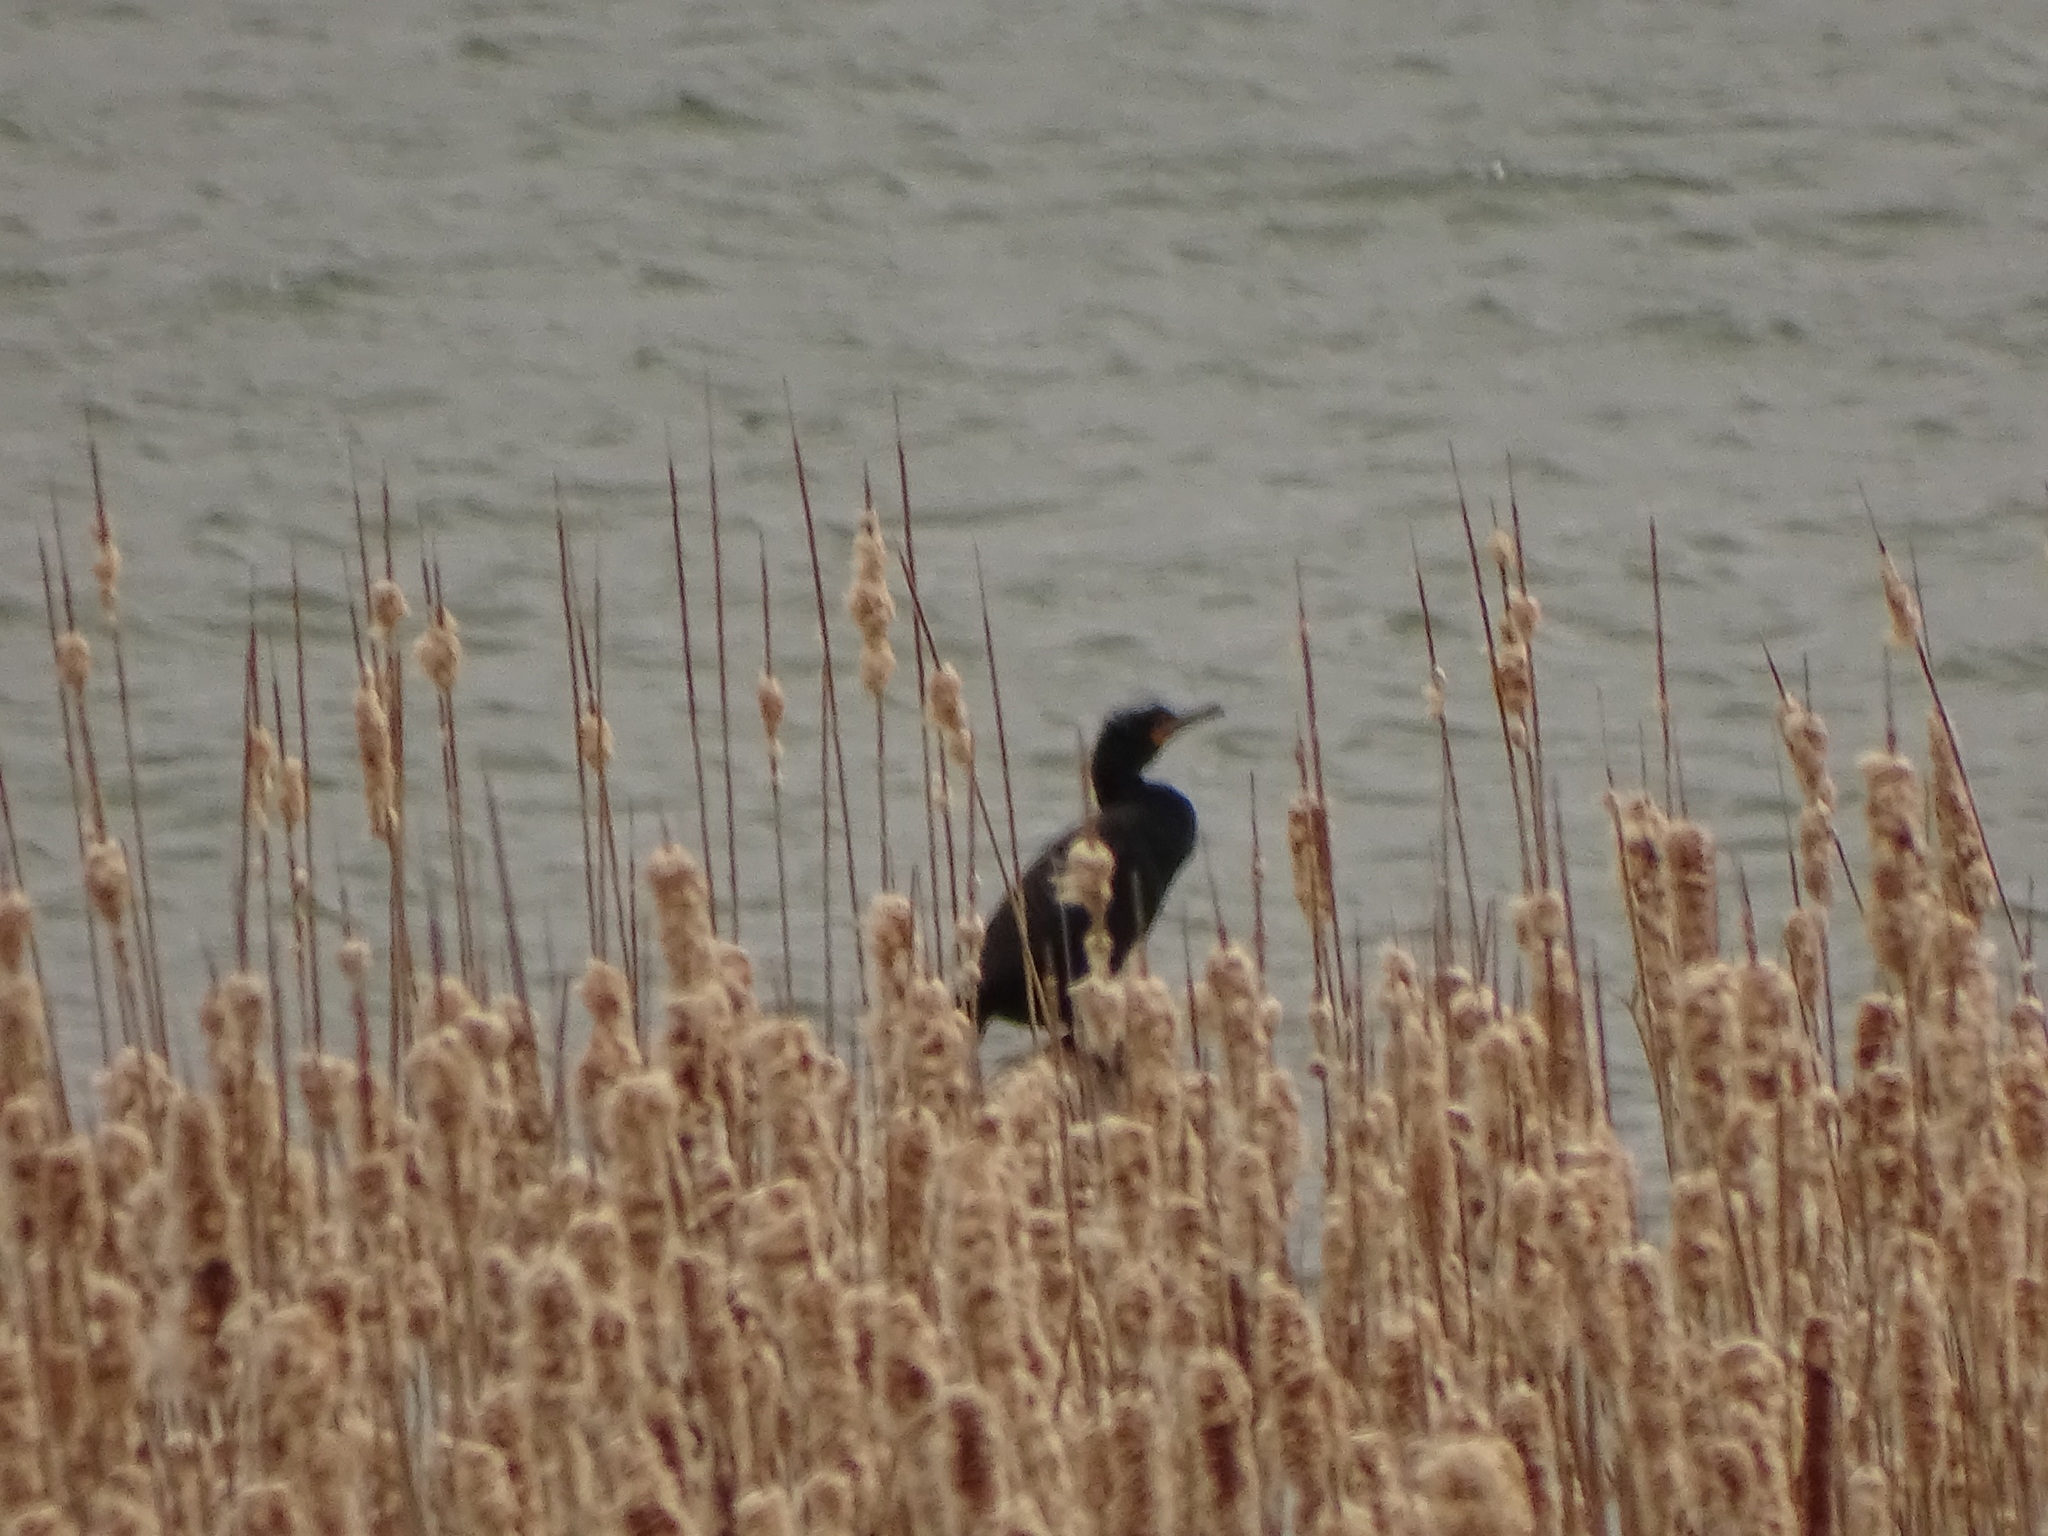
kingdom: Animalia
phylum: Chordata
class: Aves
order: Suliformes
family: Phalacrocoracidae
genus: Phalacrocorax
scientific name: Phalacrocorax auritus
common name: Double-crested cormorant
